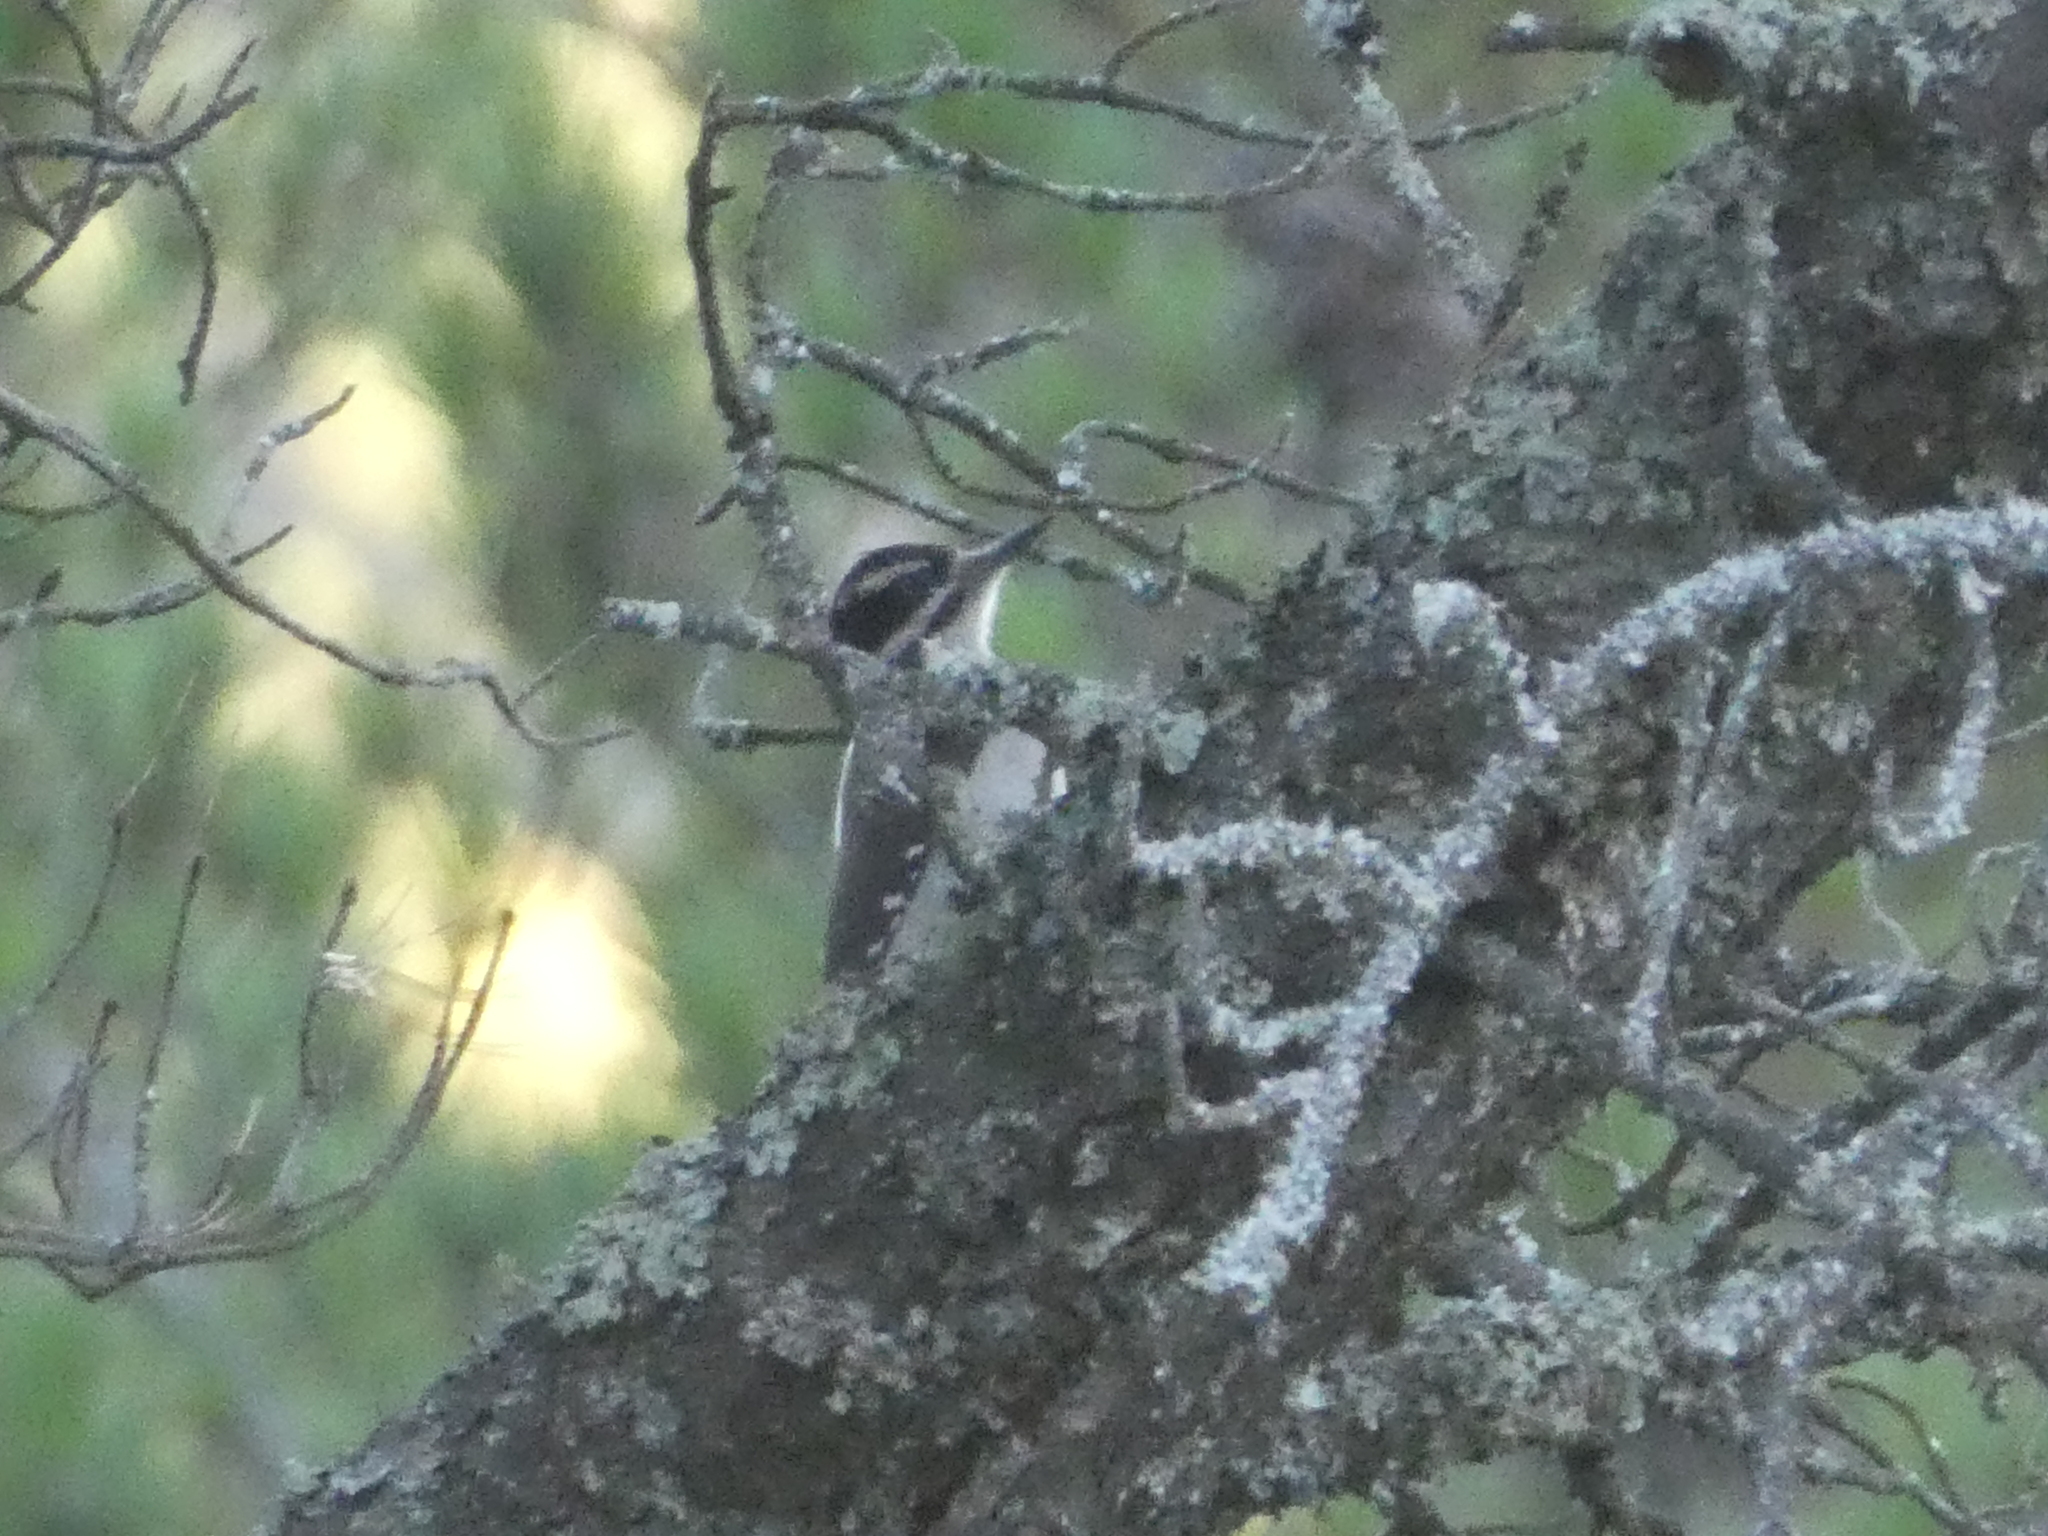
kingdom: Animalia
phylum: Chordata
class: Aves
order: Piciformes
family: Picidae
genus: Leuconotopicus
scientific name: Leuconotopicus villosus
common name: Hairy woodpecker
